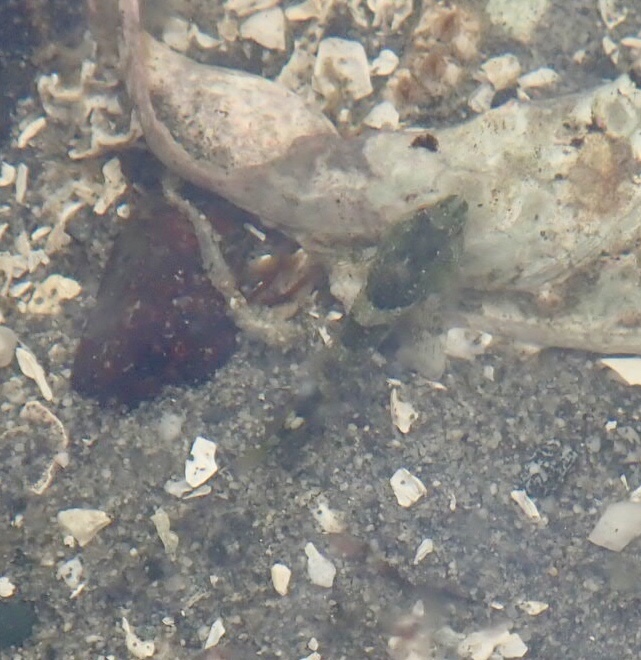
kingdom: Animalia
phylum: Chordata
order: Scorpaeniformes
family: Cottidae
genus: Oligocottus
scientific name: Oligocottus maculosus
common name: Tidepool sculpin
